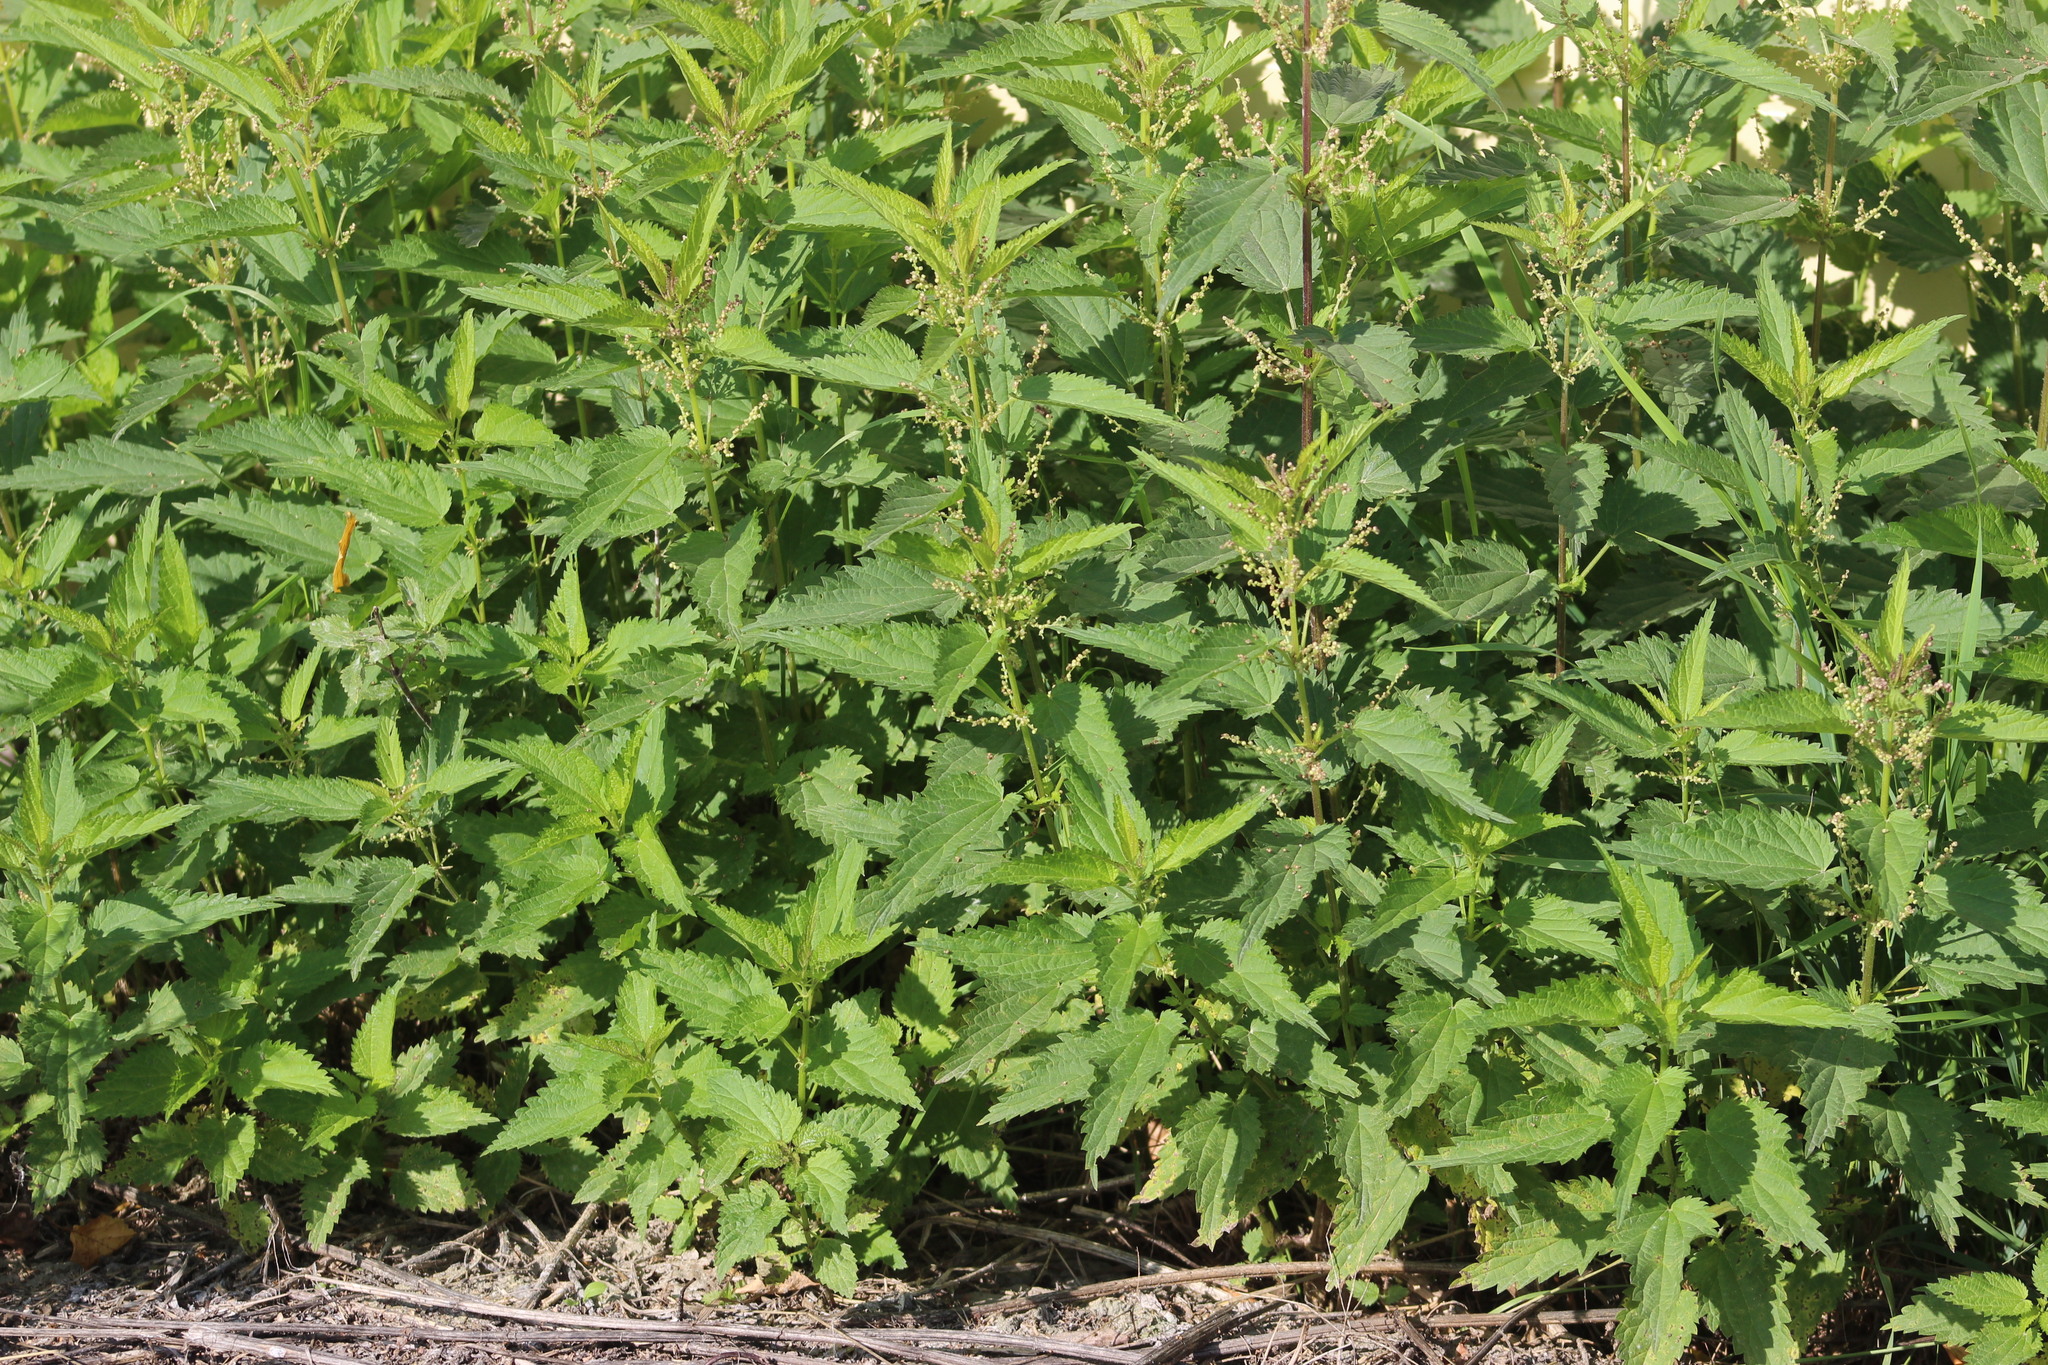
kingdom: Plantae
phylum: Tracheophyta
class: Magnoliopsida
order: Rosales
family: Urticaceae
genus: Urtica
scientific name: Urtica dioica
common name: Common nettle
